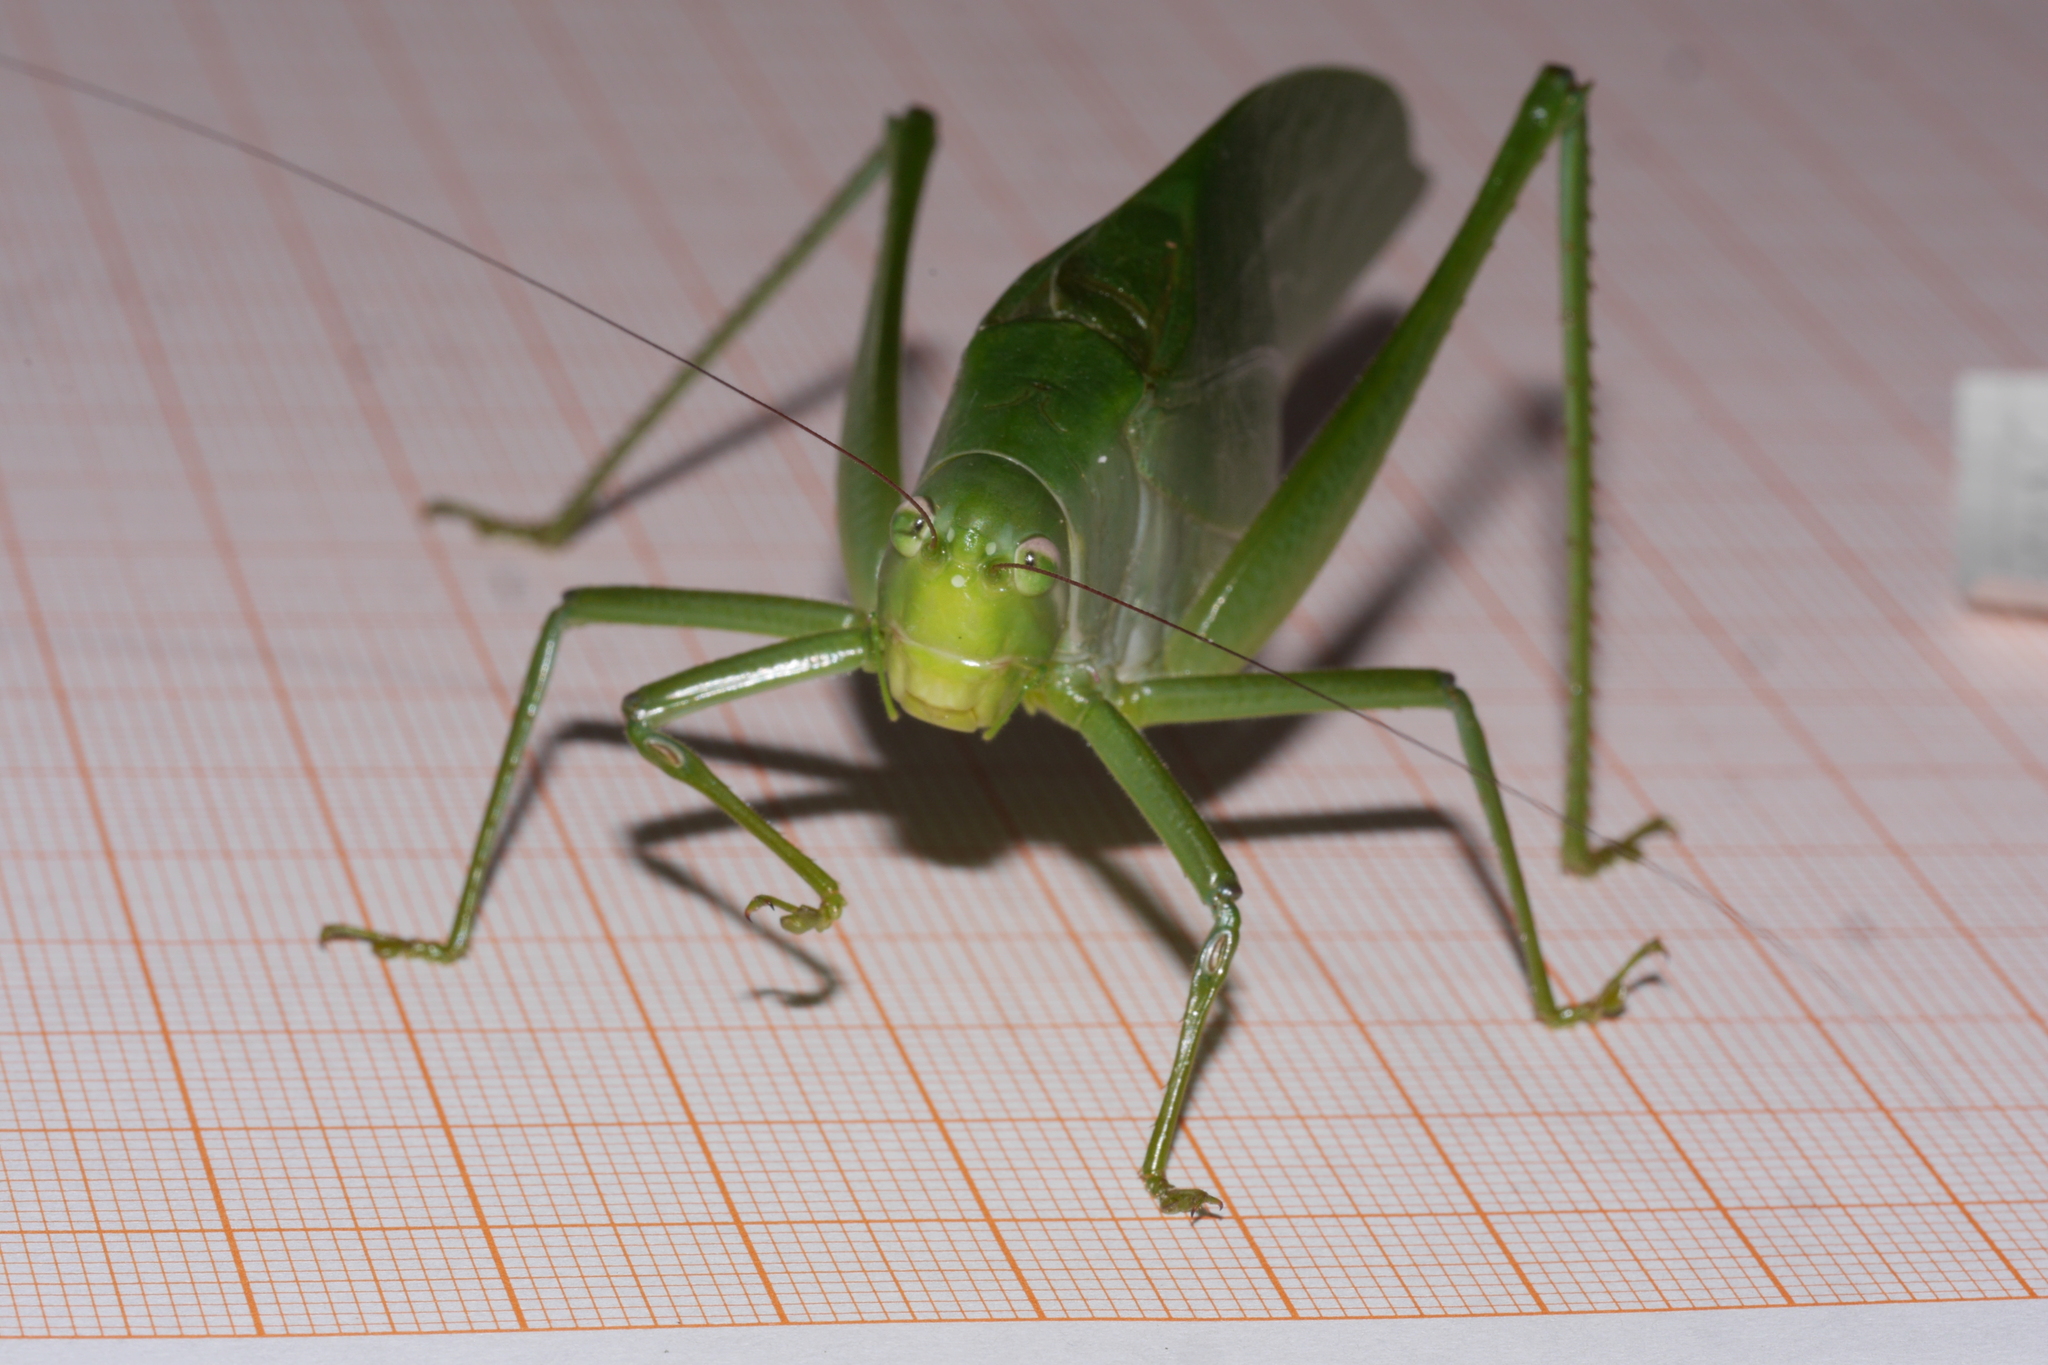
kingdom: Animalia
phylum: Arthropoda
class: Insecta
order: Orthoptera
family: Tettigoniidae
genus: Philophyllia
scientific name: Philophyllia ingens
